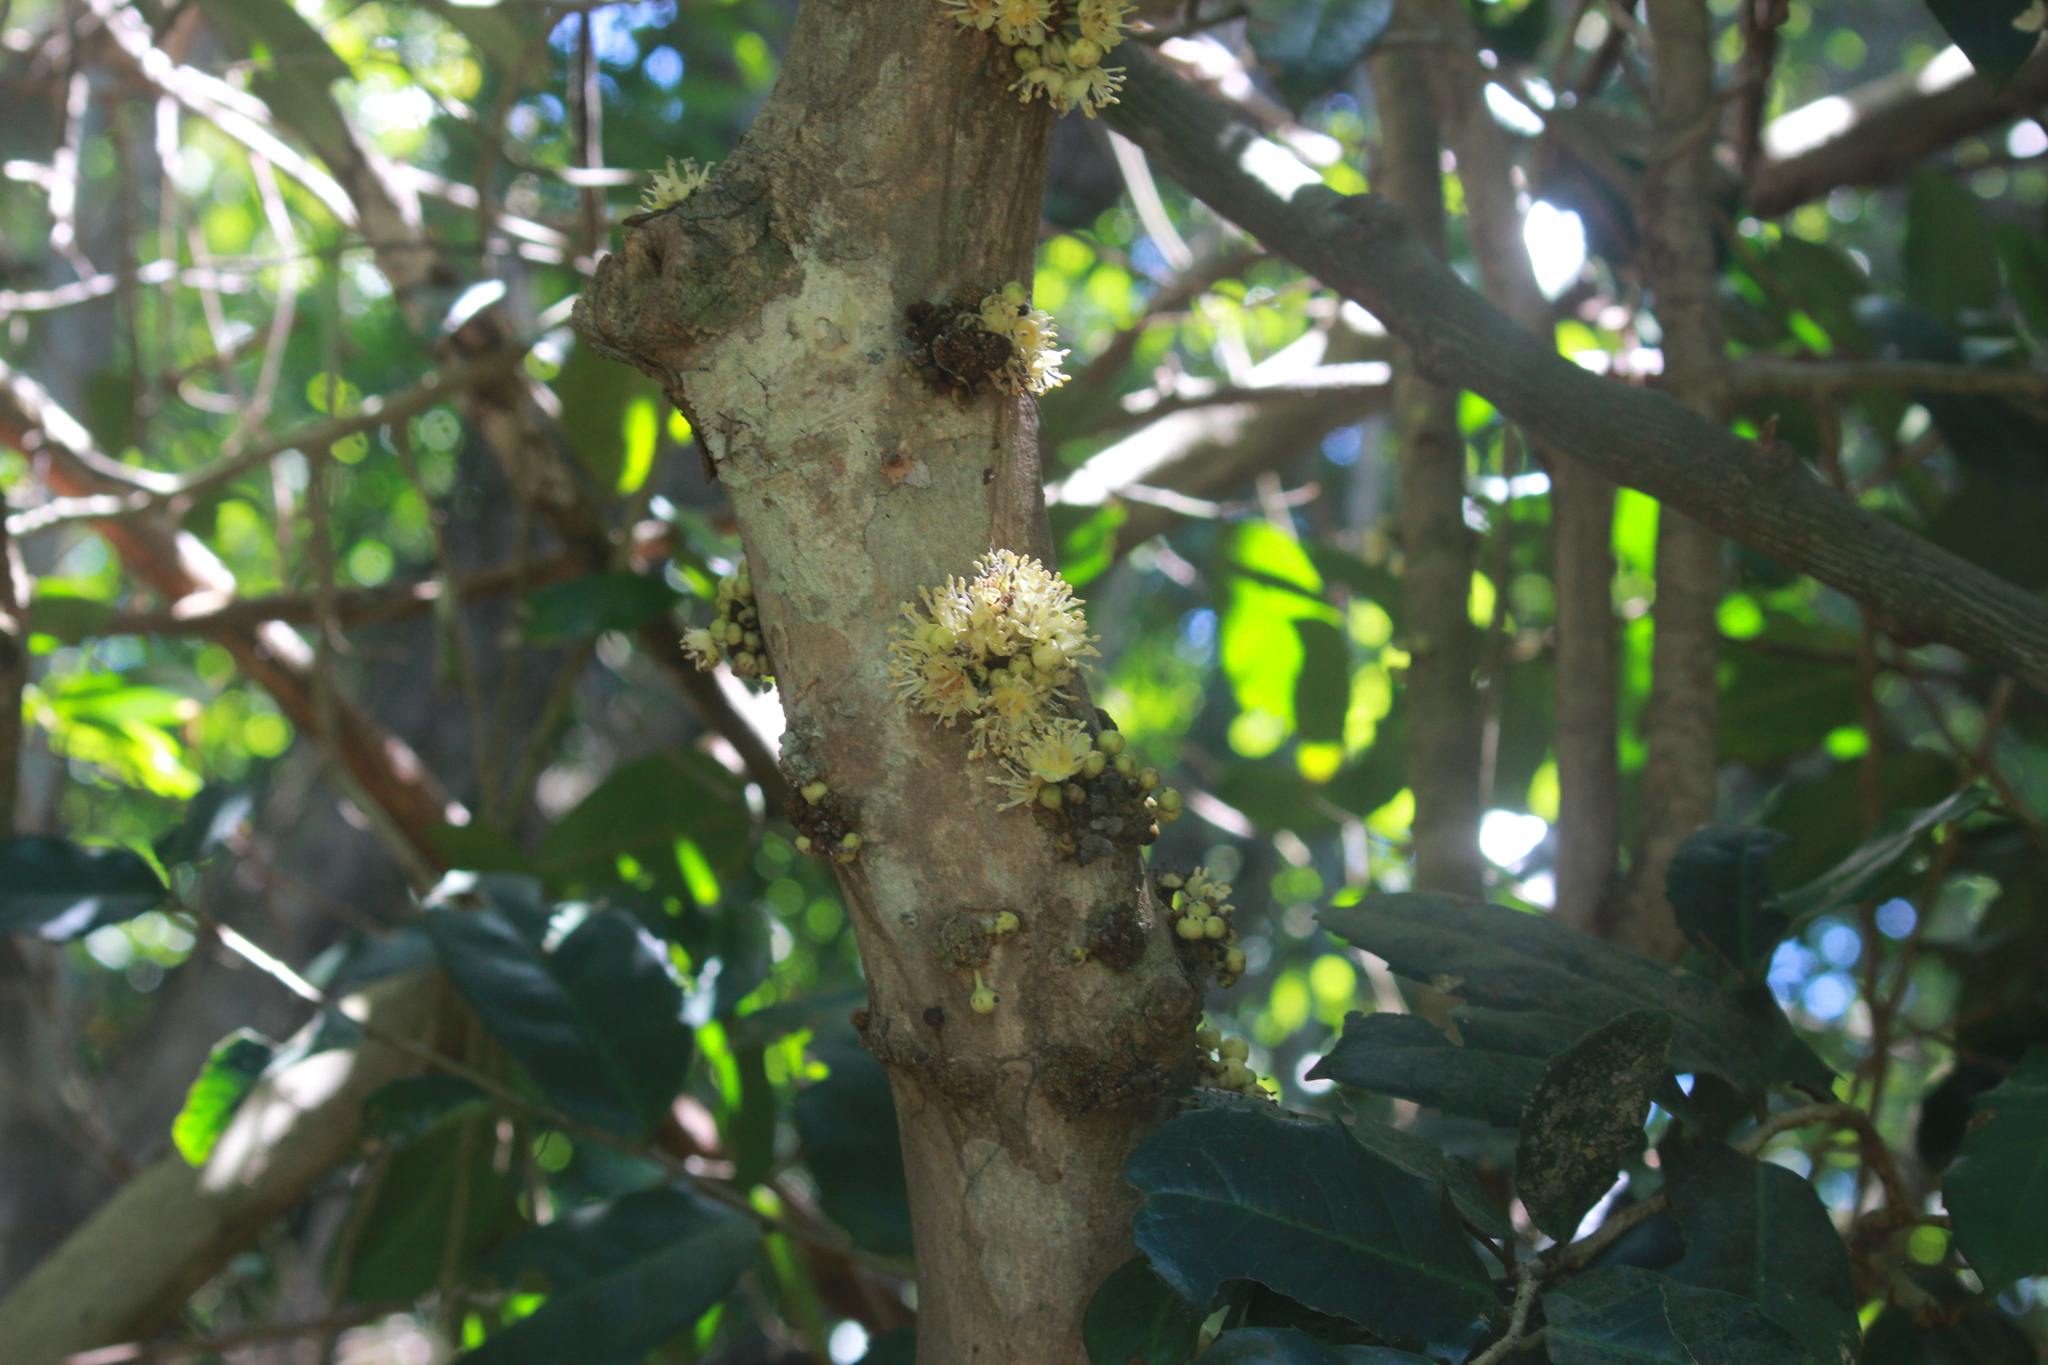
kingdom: Plantae
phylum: Tracheophyta
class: Magnoliopsida
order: Malpighiales
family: Putranjivaceae
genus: Drypetes
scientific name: Drypetes natalensis
